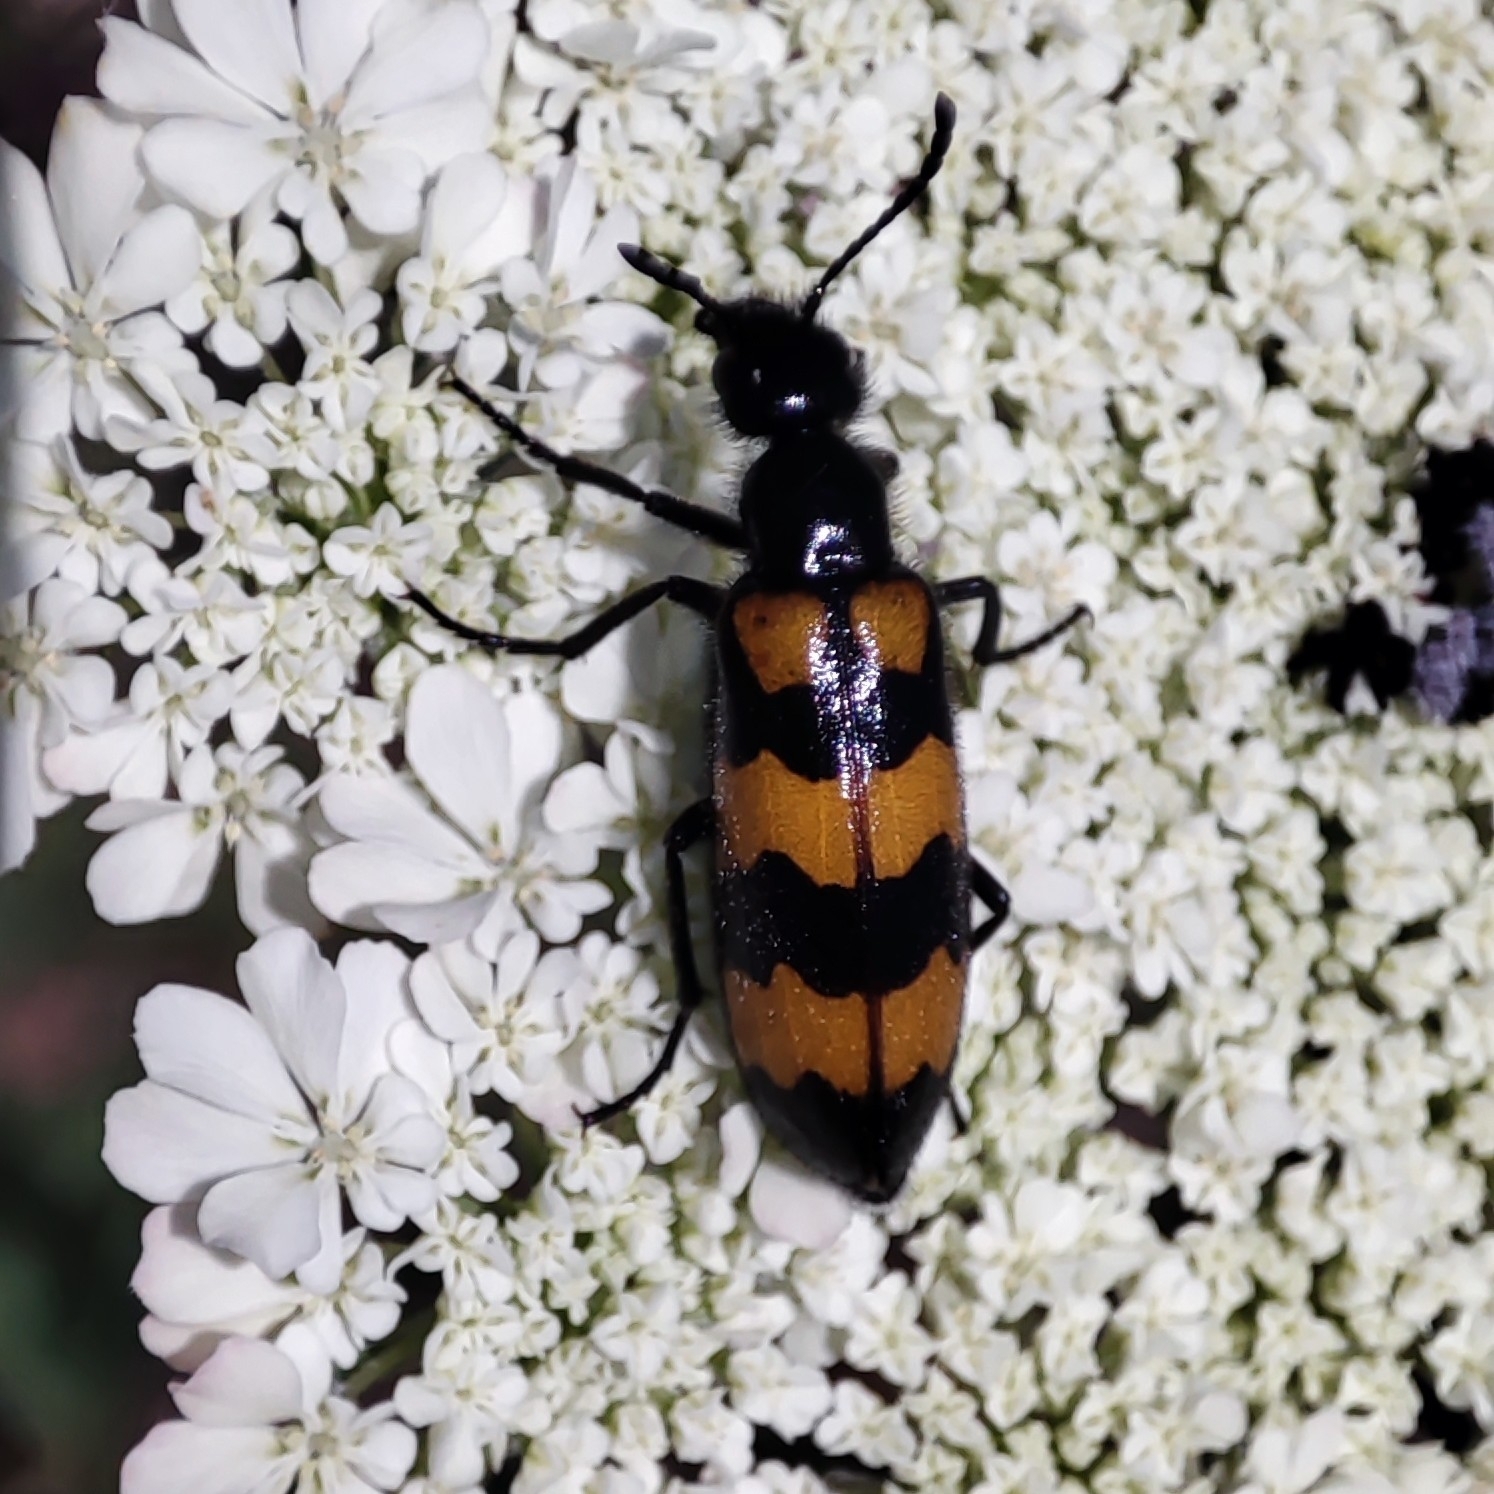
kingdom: Animalia
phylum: Arthropoda
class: Insecta
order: Coleoptera
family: Meloidae
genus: Mylabris
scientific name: Mylabris variabilis
